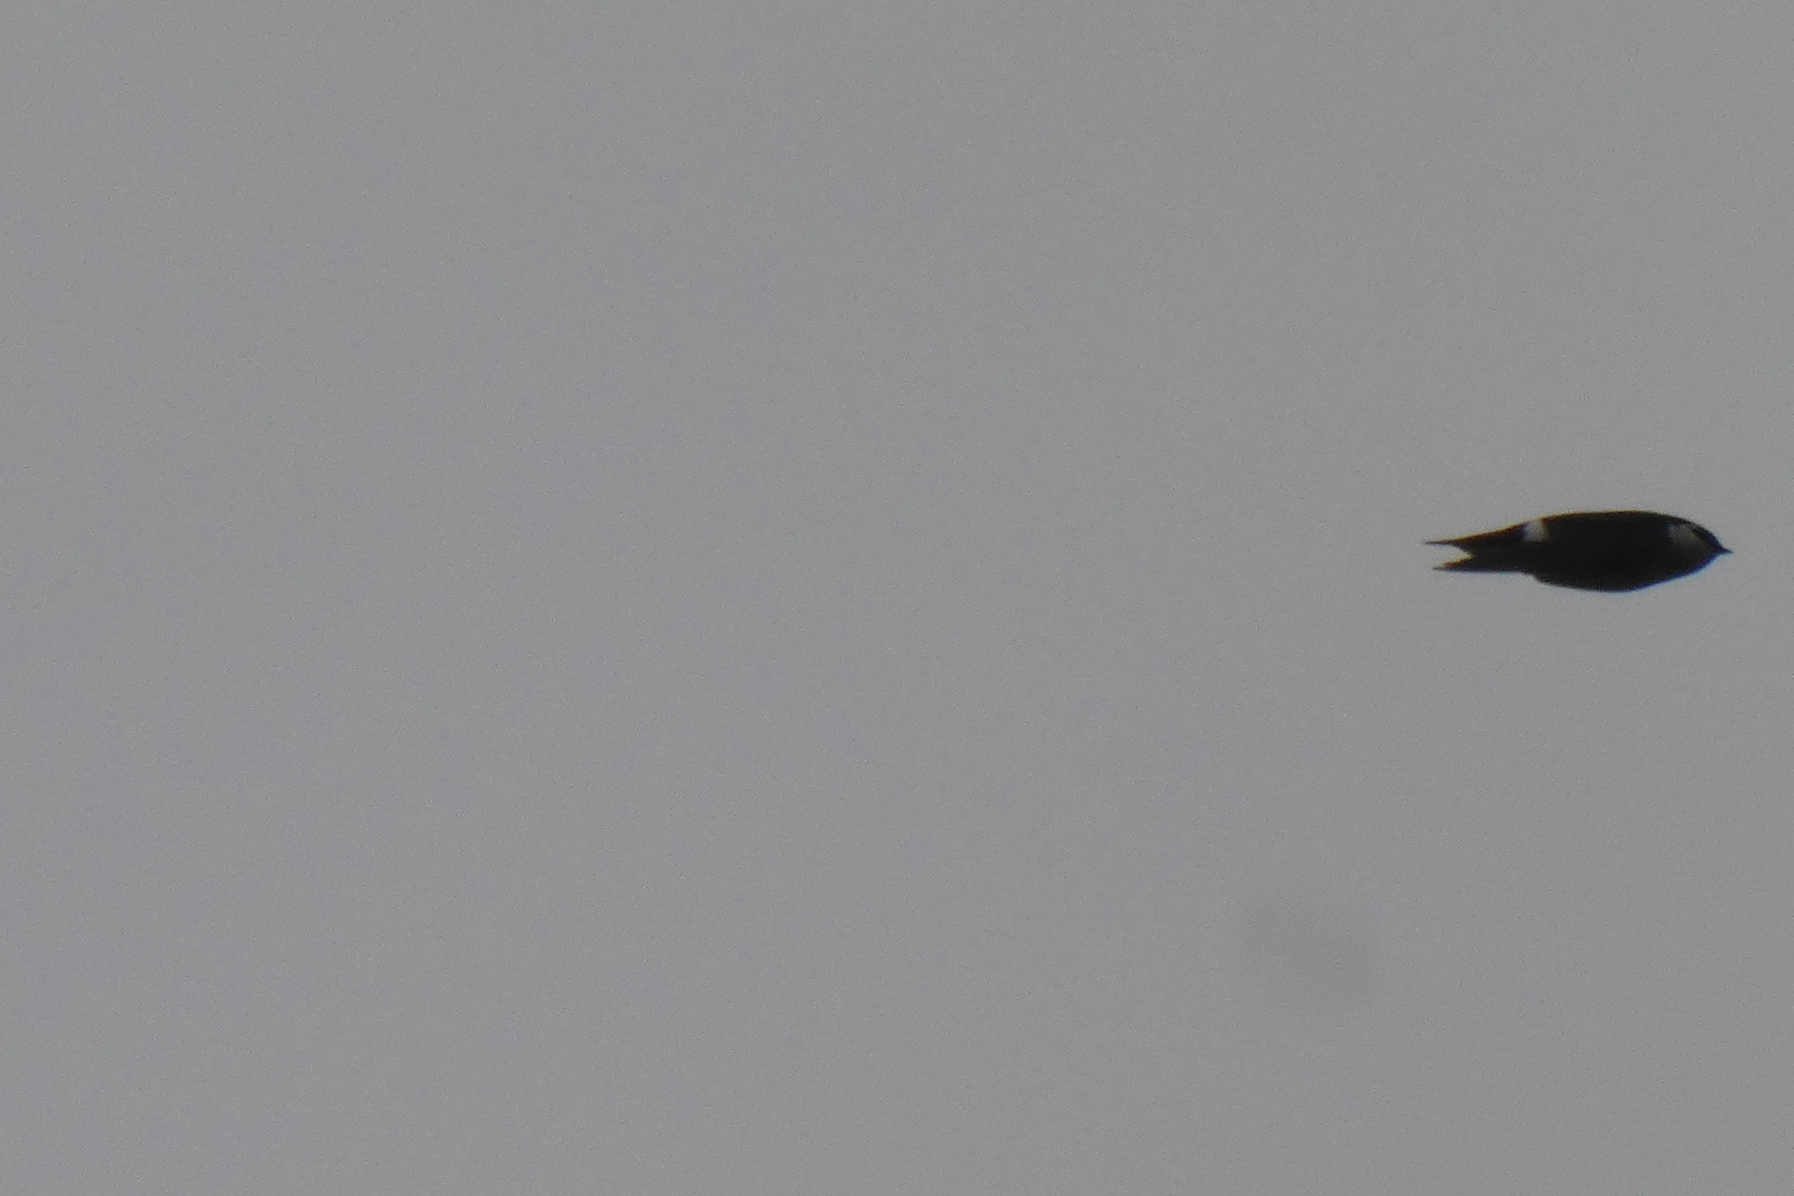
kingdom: Animalia
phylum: Chordata
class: Aves
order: Passeriformes
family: Hirundinidae
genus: Tachycineta
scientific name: Tachycineta thalassina
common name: Violet-green swallow
